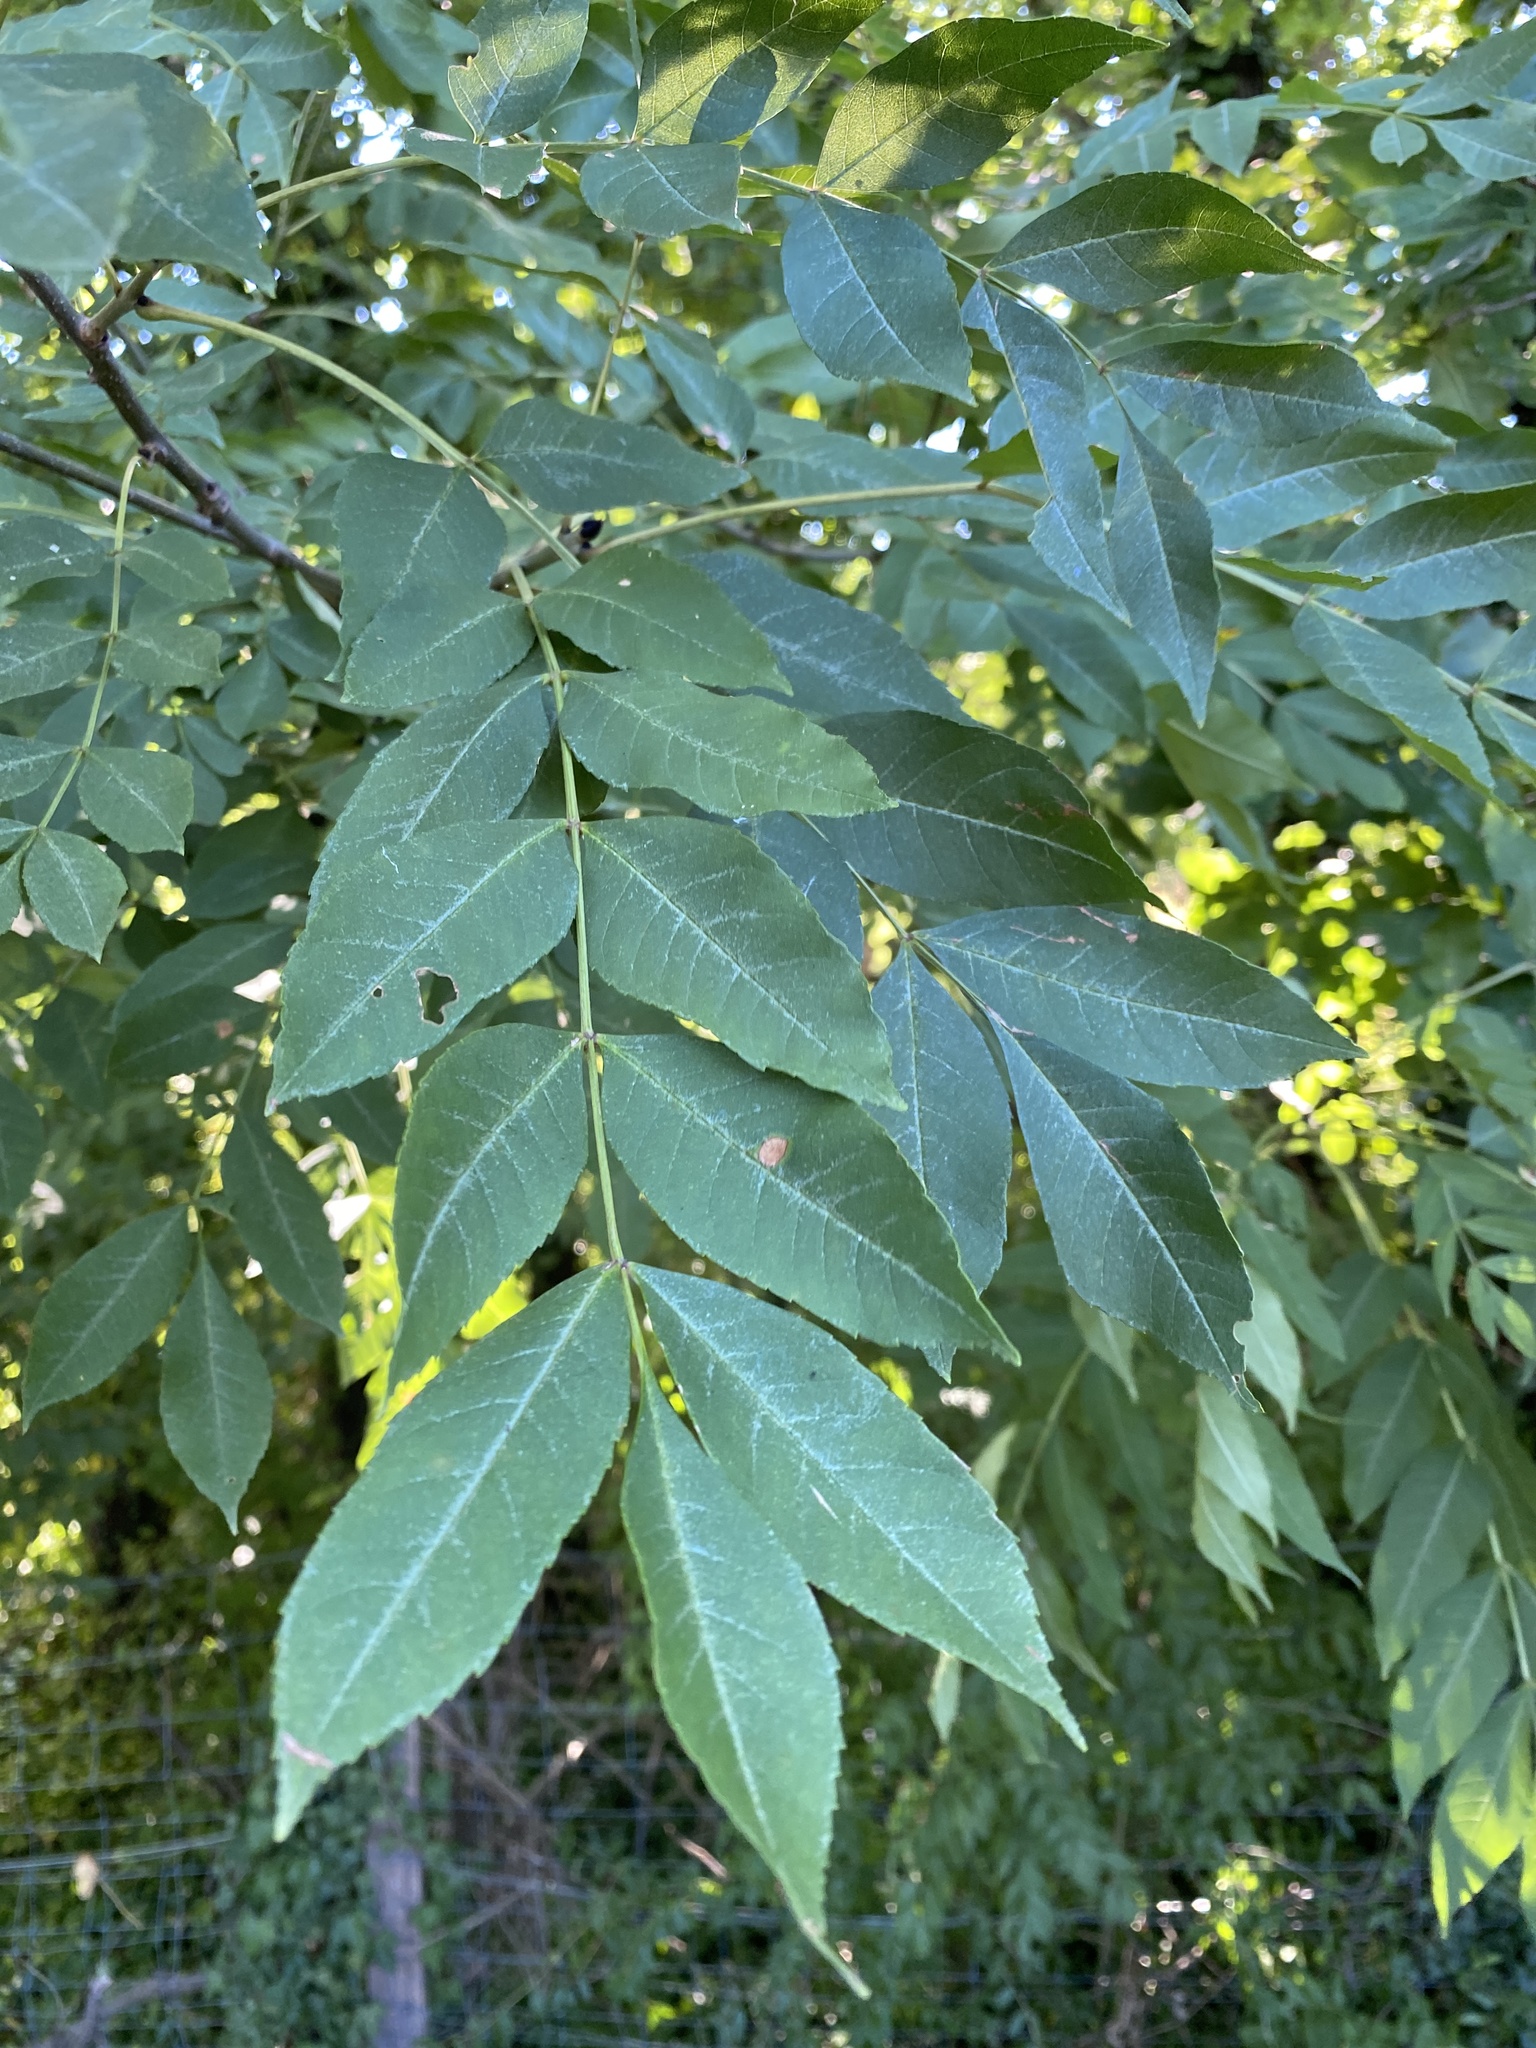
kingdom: Plantae
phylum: Tracheophyta
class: Magnoliopsida
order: Lamiales
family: Oleaceae
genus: Fraxinus
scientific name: Fraxinus excelsior
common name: European ash
